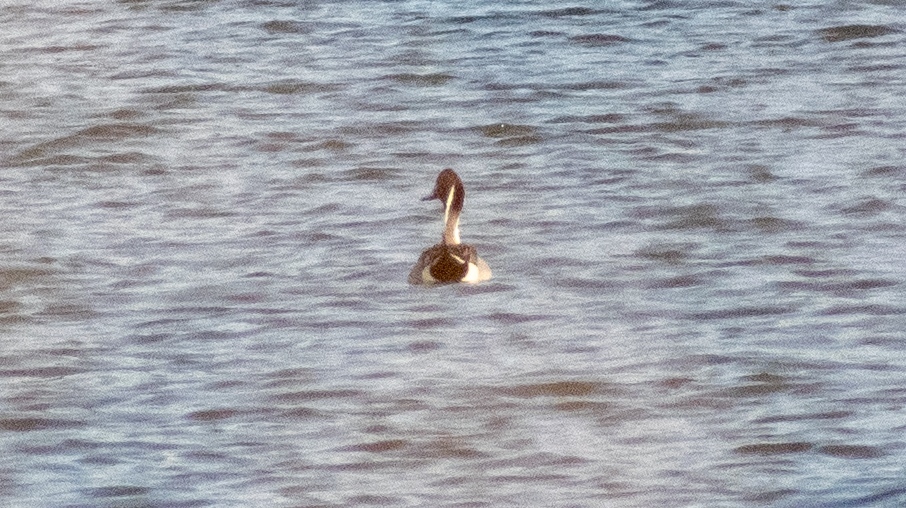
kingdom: Animalia
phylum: Chordata
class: Aves
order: Anseriformes
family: Anatidae
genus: Anas
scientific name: Anas acuta
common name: Northern pintail
